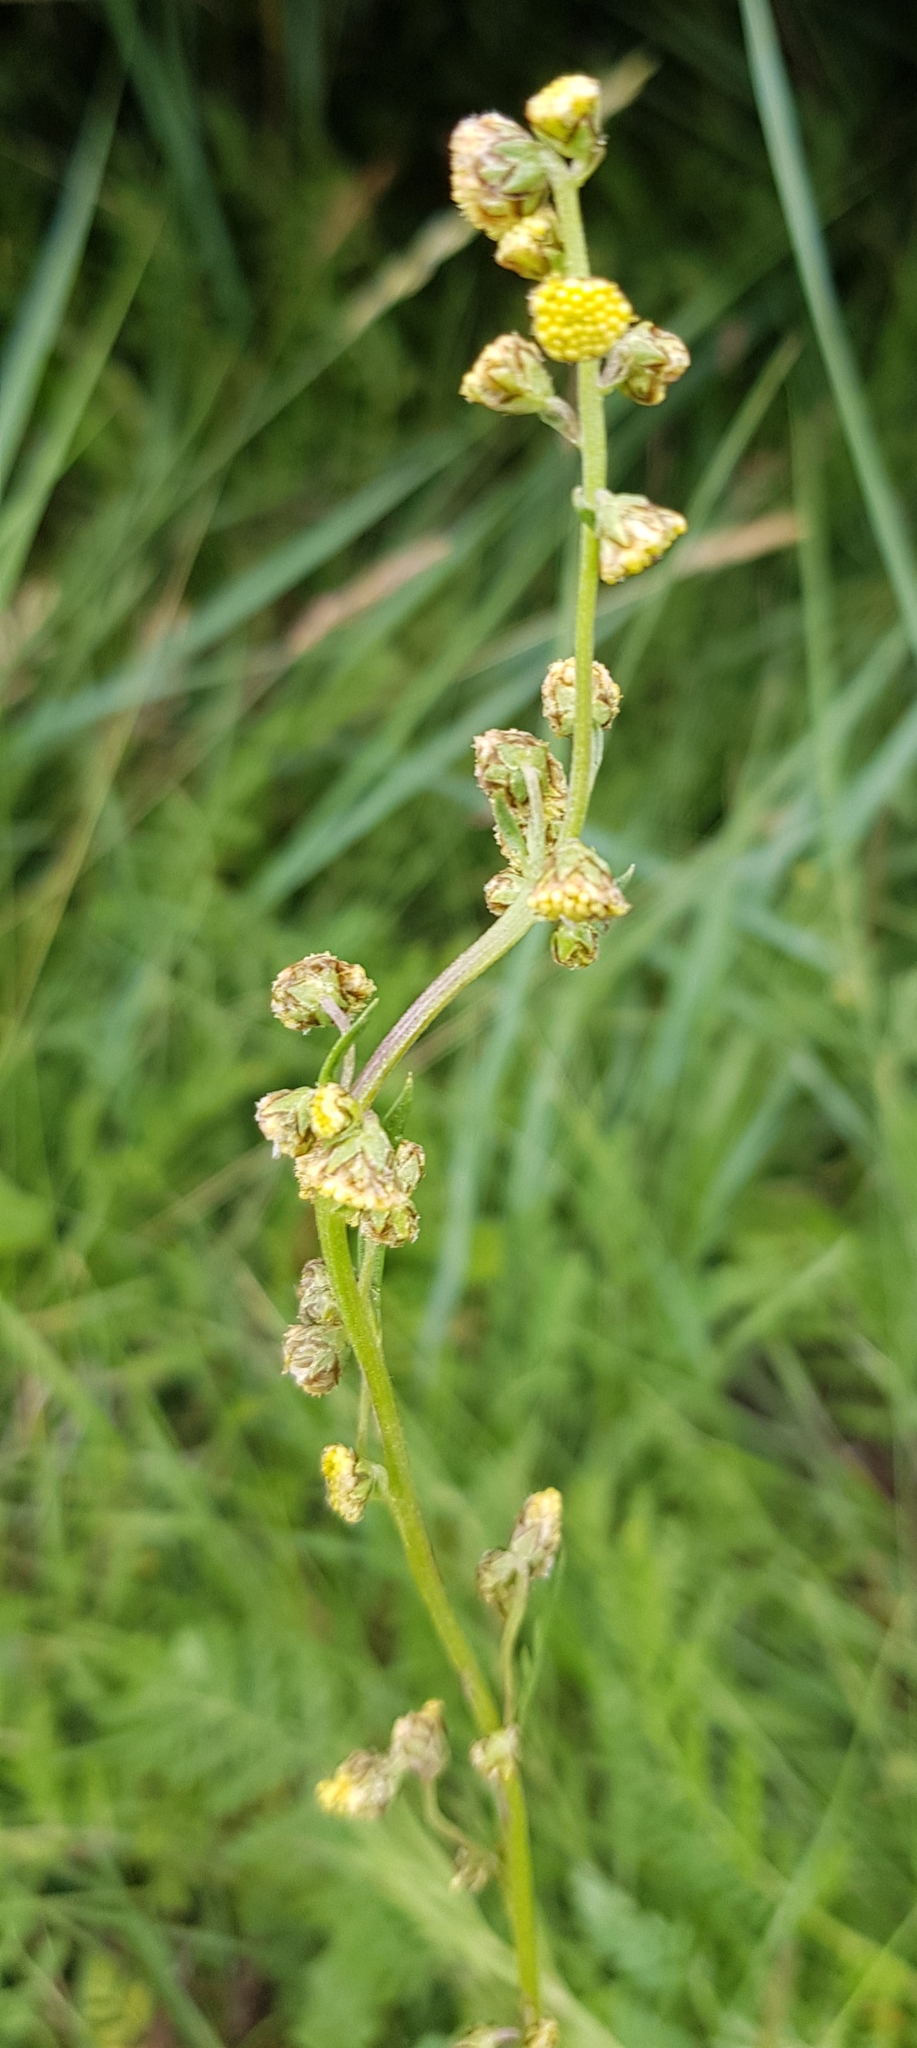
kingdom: Plantae
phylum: Tracheophyta
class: Magnoliopsida
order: Asterales
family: Asteraceae
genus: Artemisia
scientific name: Artemisia tanacetifolia
